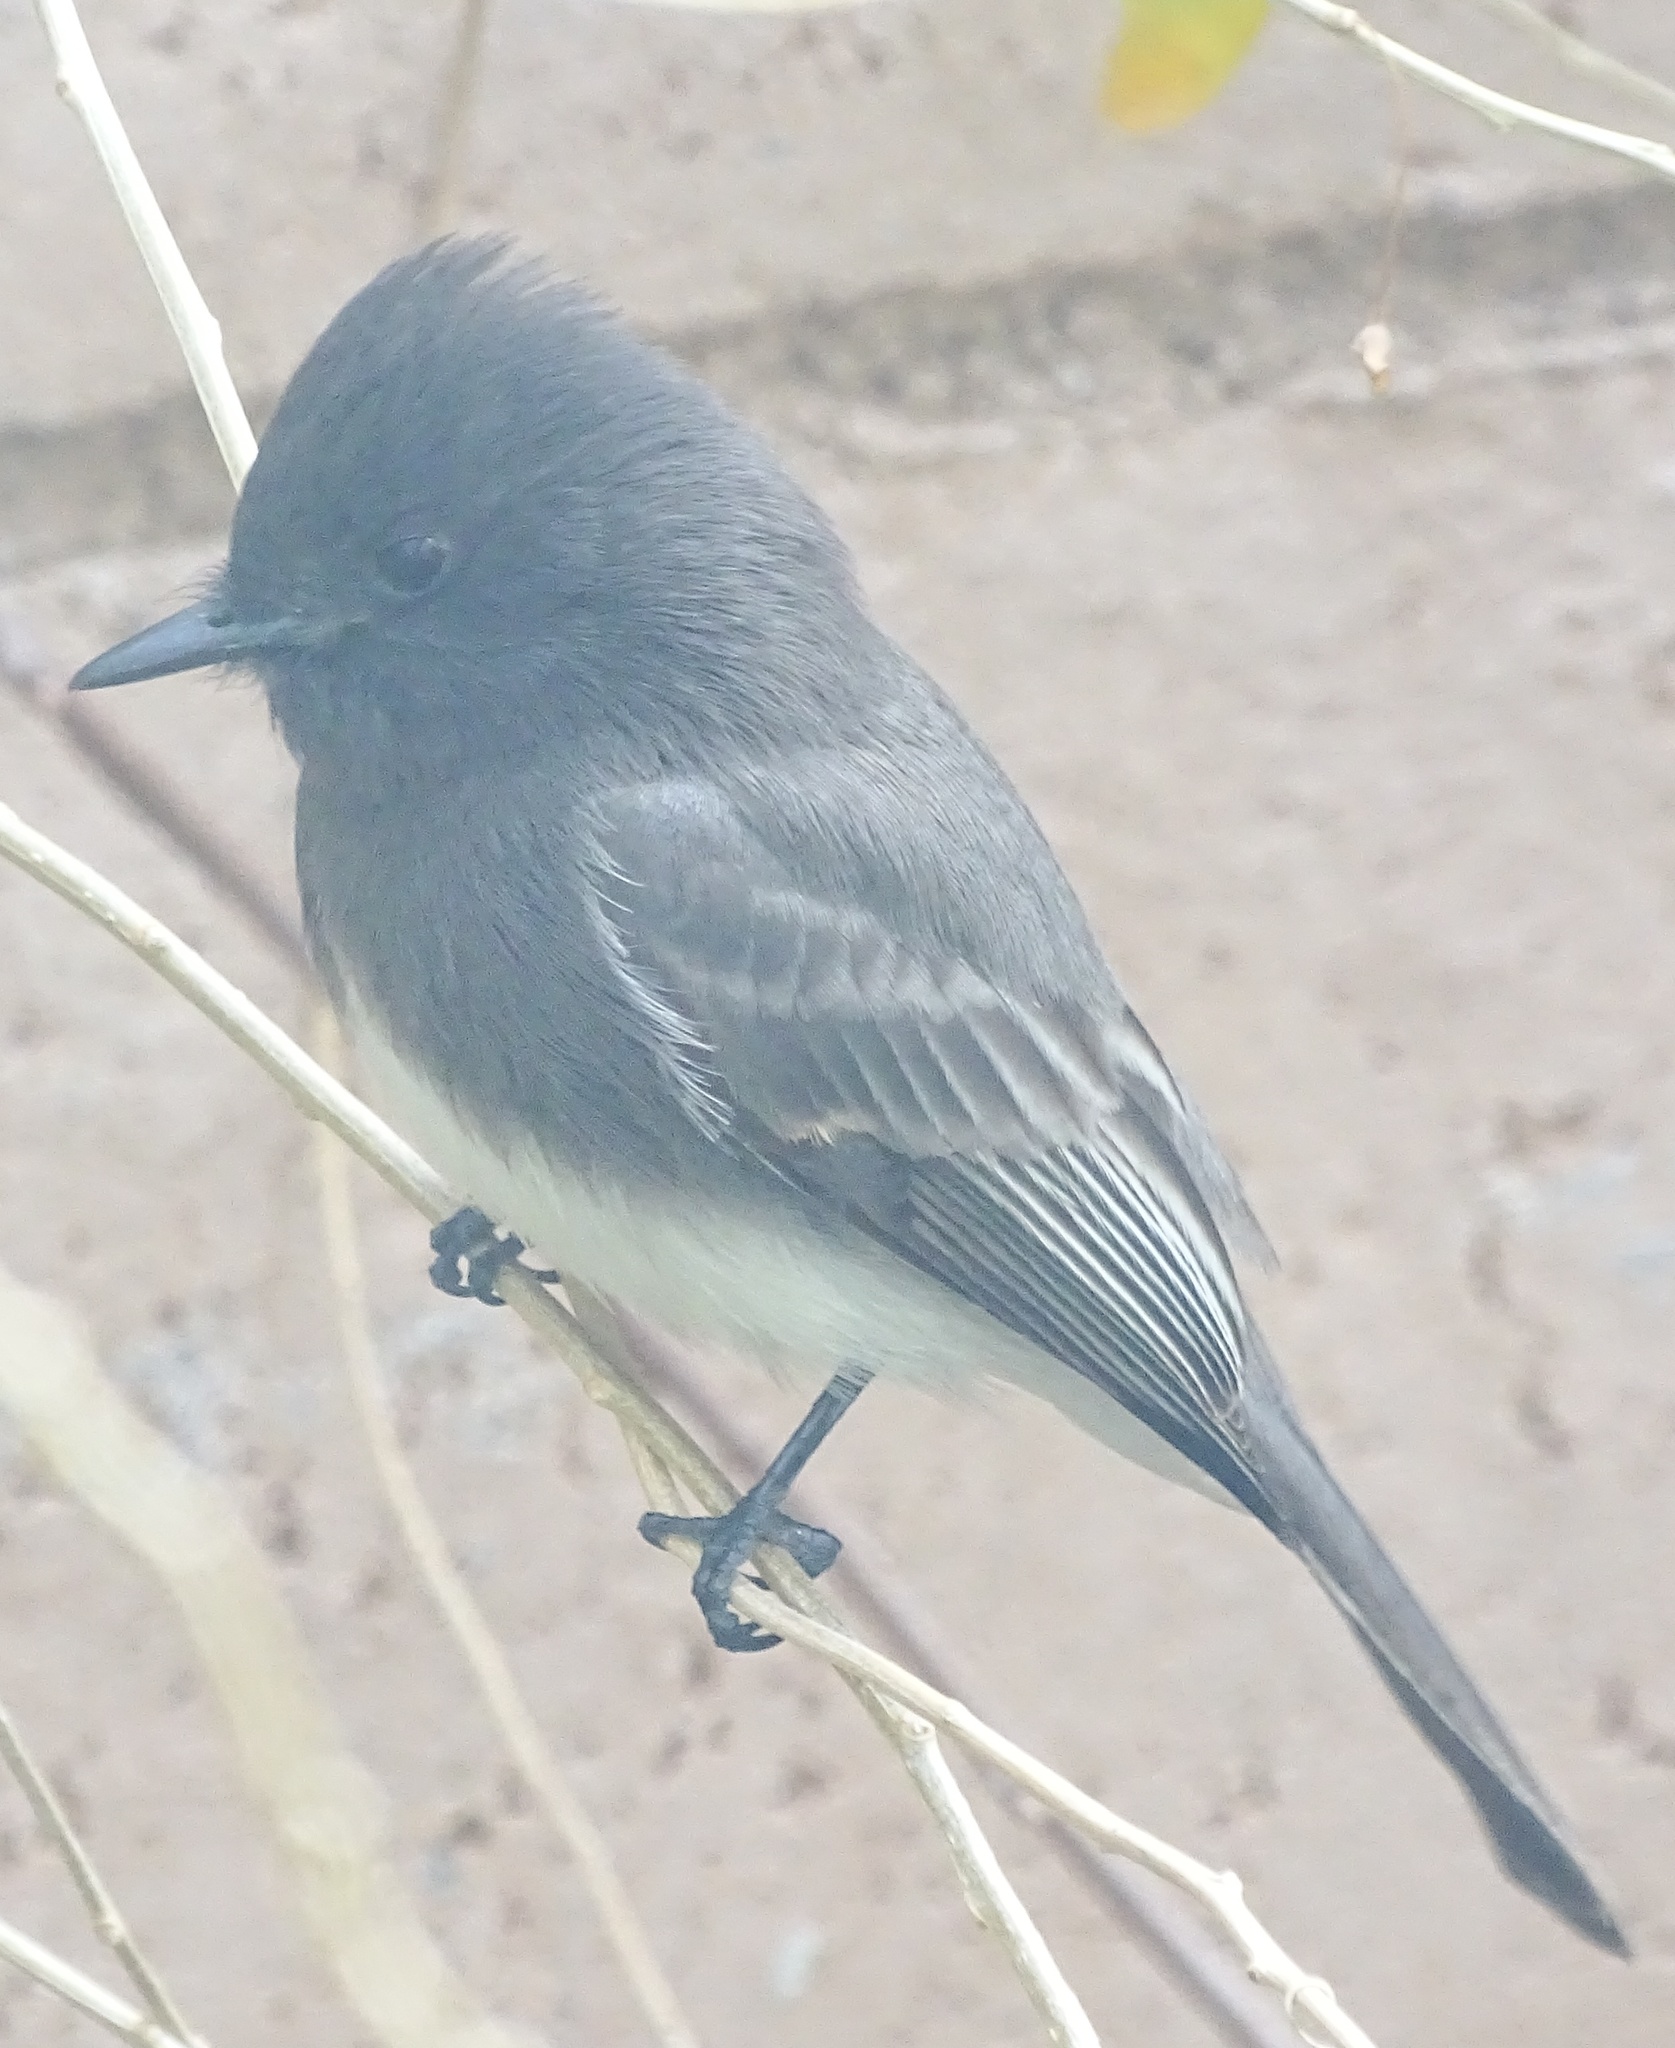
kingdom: Animalia
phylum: Chordata
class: Aves
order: Passeriformes
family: Tyrannidae
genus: Sayornis
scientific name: Sayornis nigricans
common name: Black phoebe
